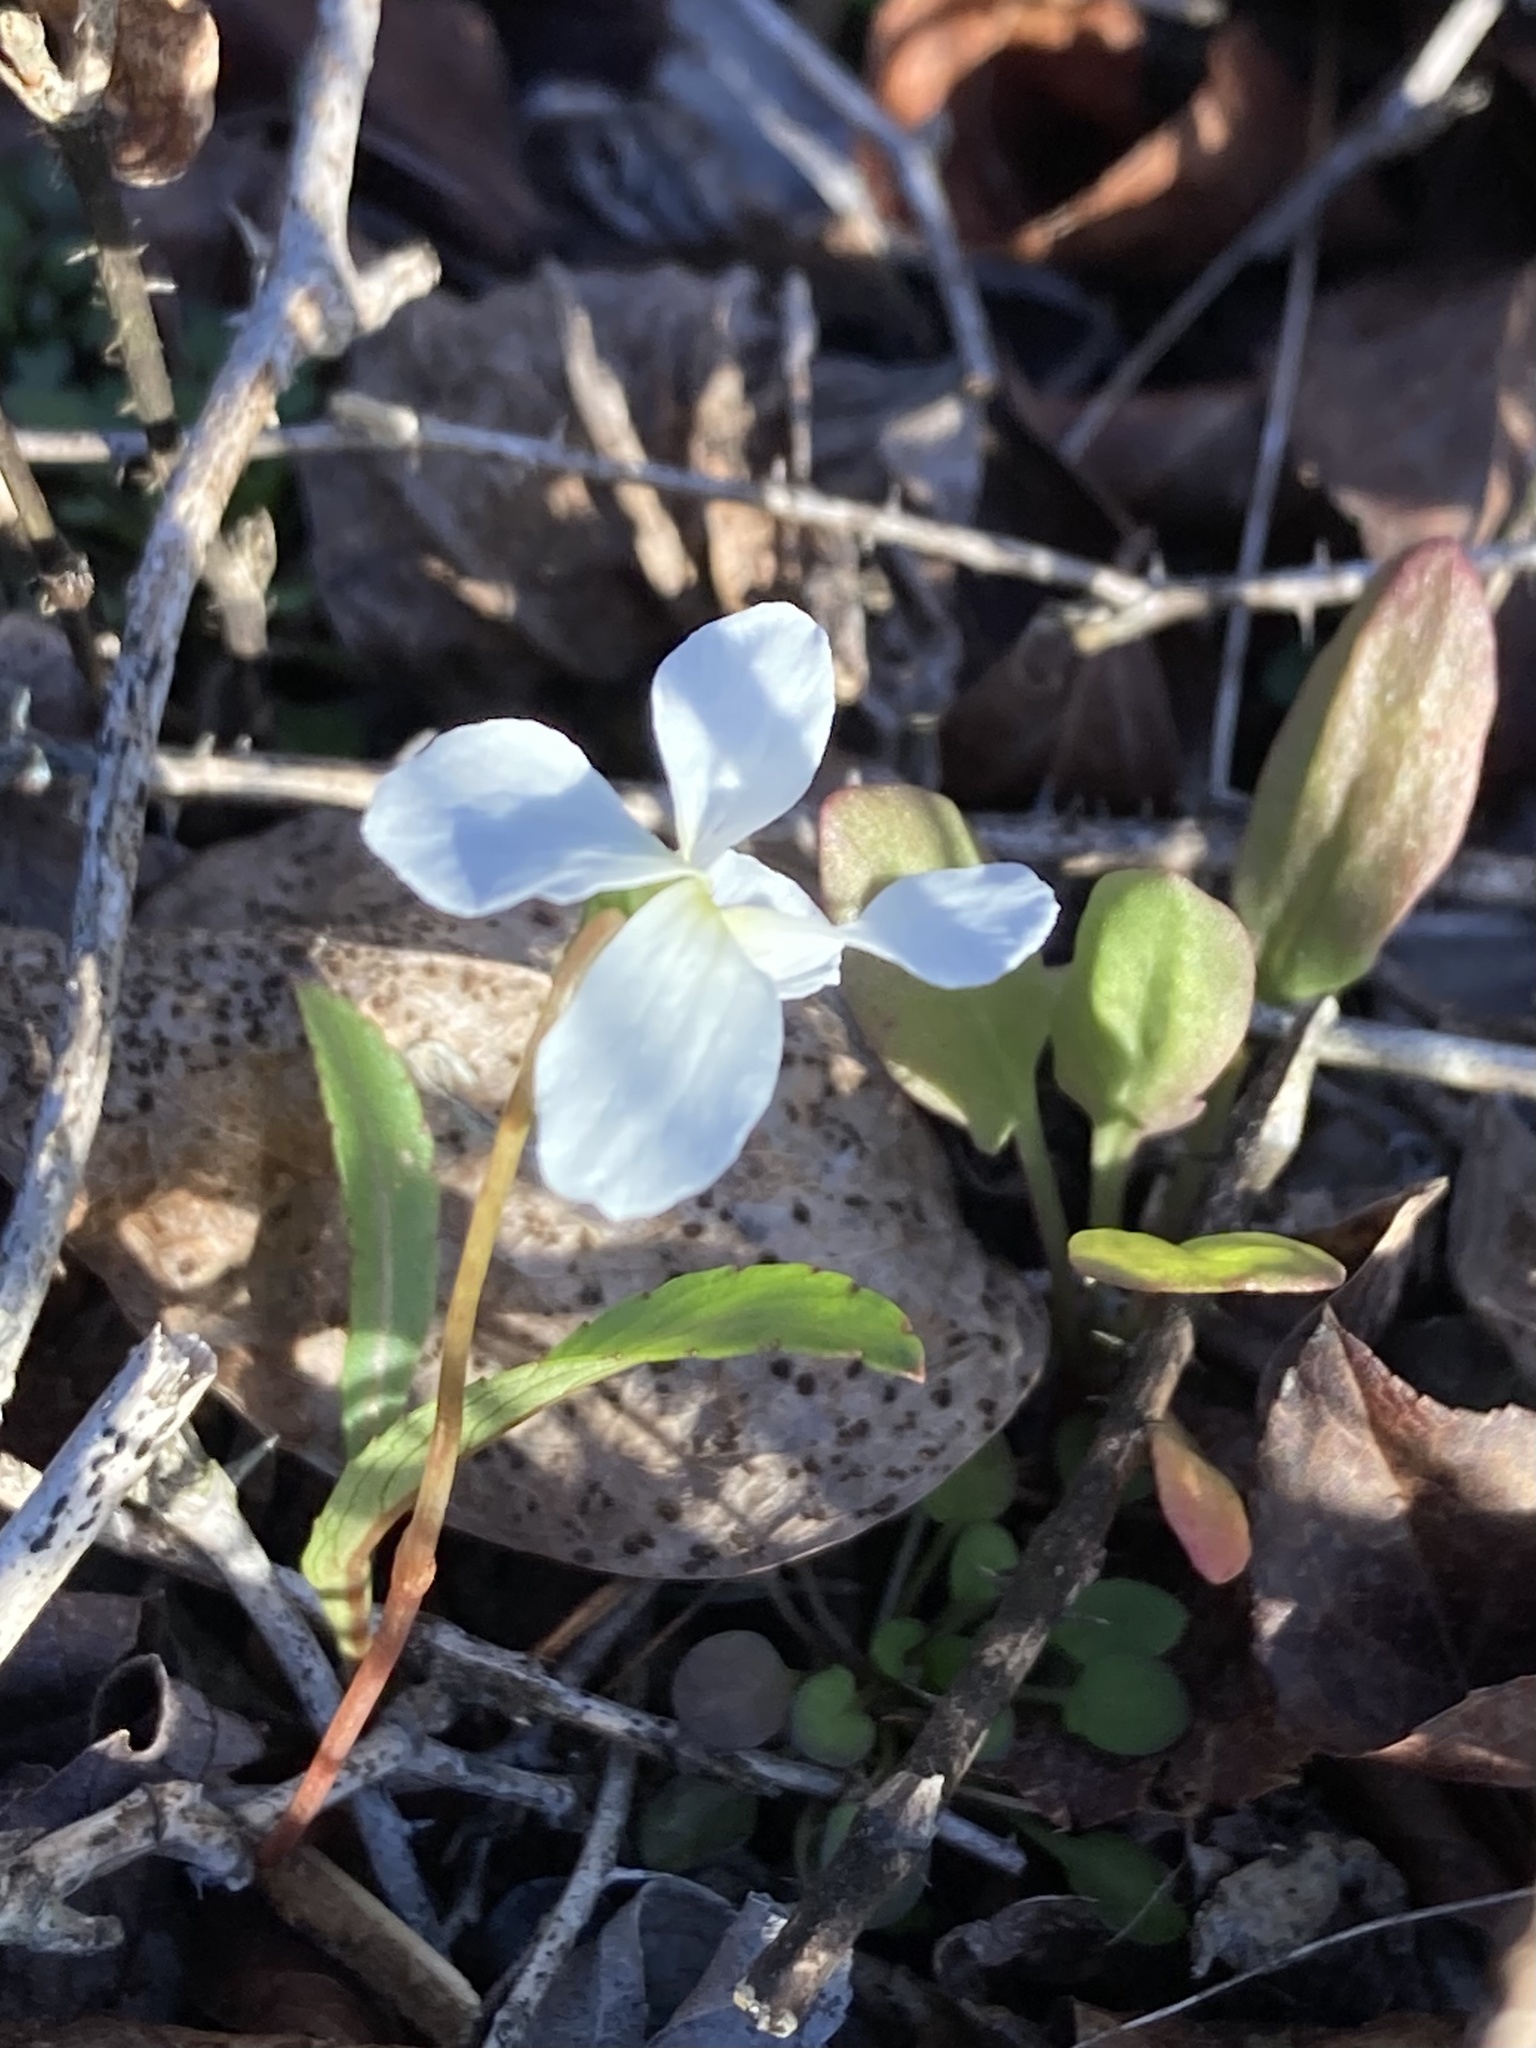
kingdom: Plantae
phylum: Tracheophyta
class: Magnoliopsida
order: Malpighiales
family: Violaceae
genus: Viola
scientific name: Viola lanceolata
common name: Bog white violet
